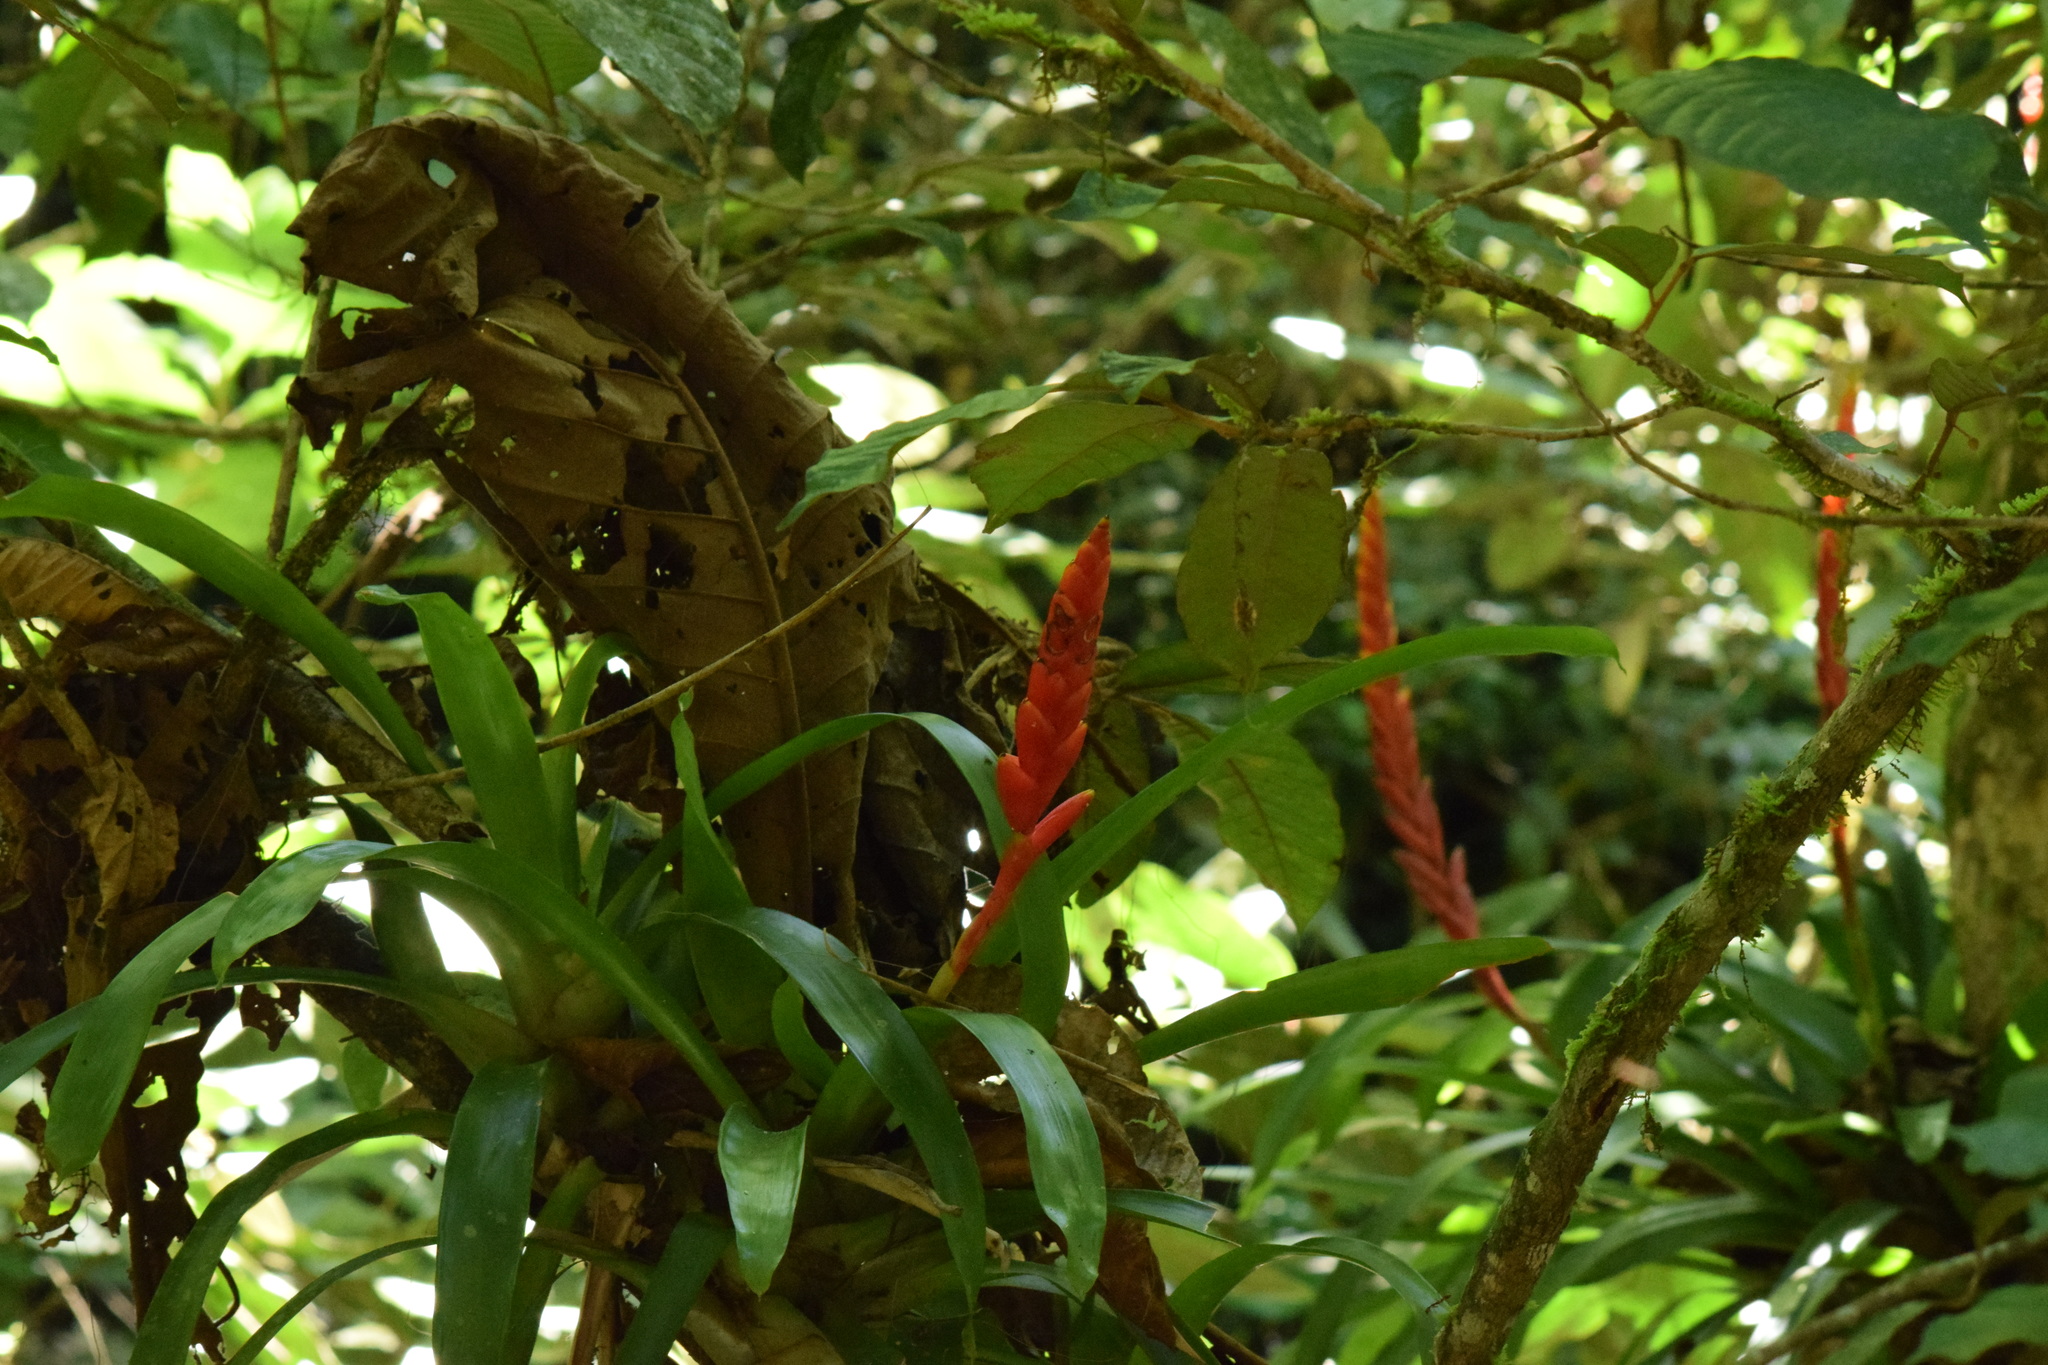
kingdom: Plantae
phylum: Tracheophyta
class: Liliopsida
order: Poales
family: Bromeliaceae
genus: Vriesea
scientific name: Vriesea ensiformis
